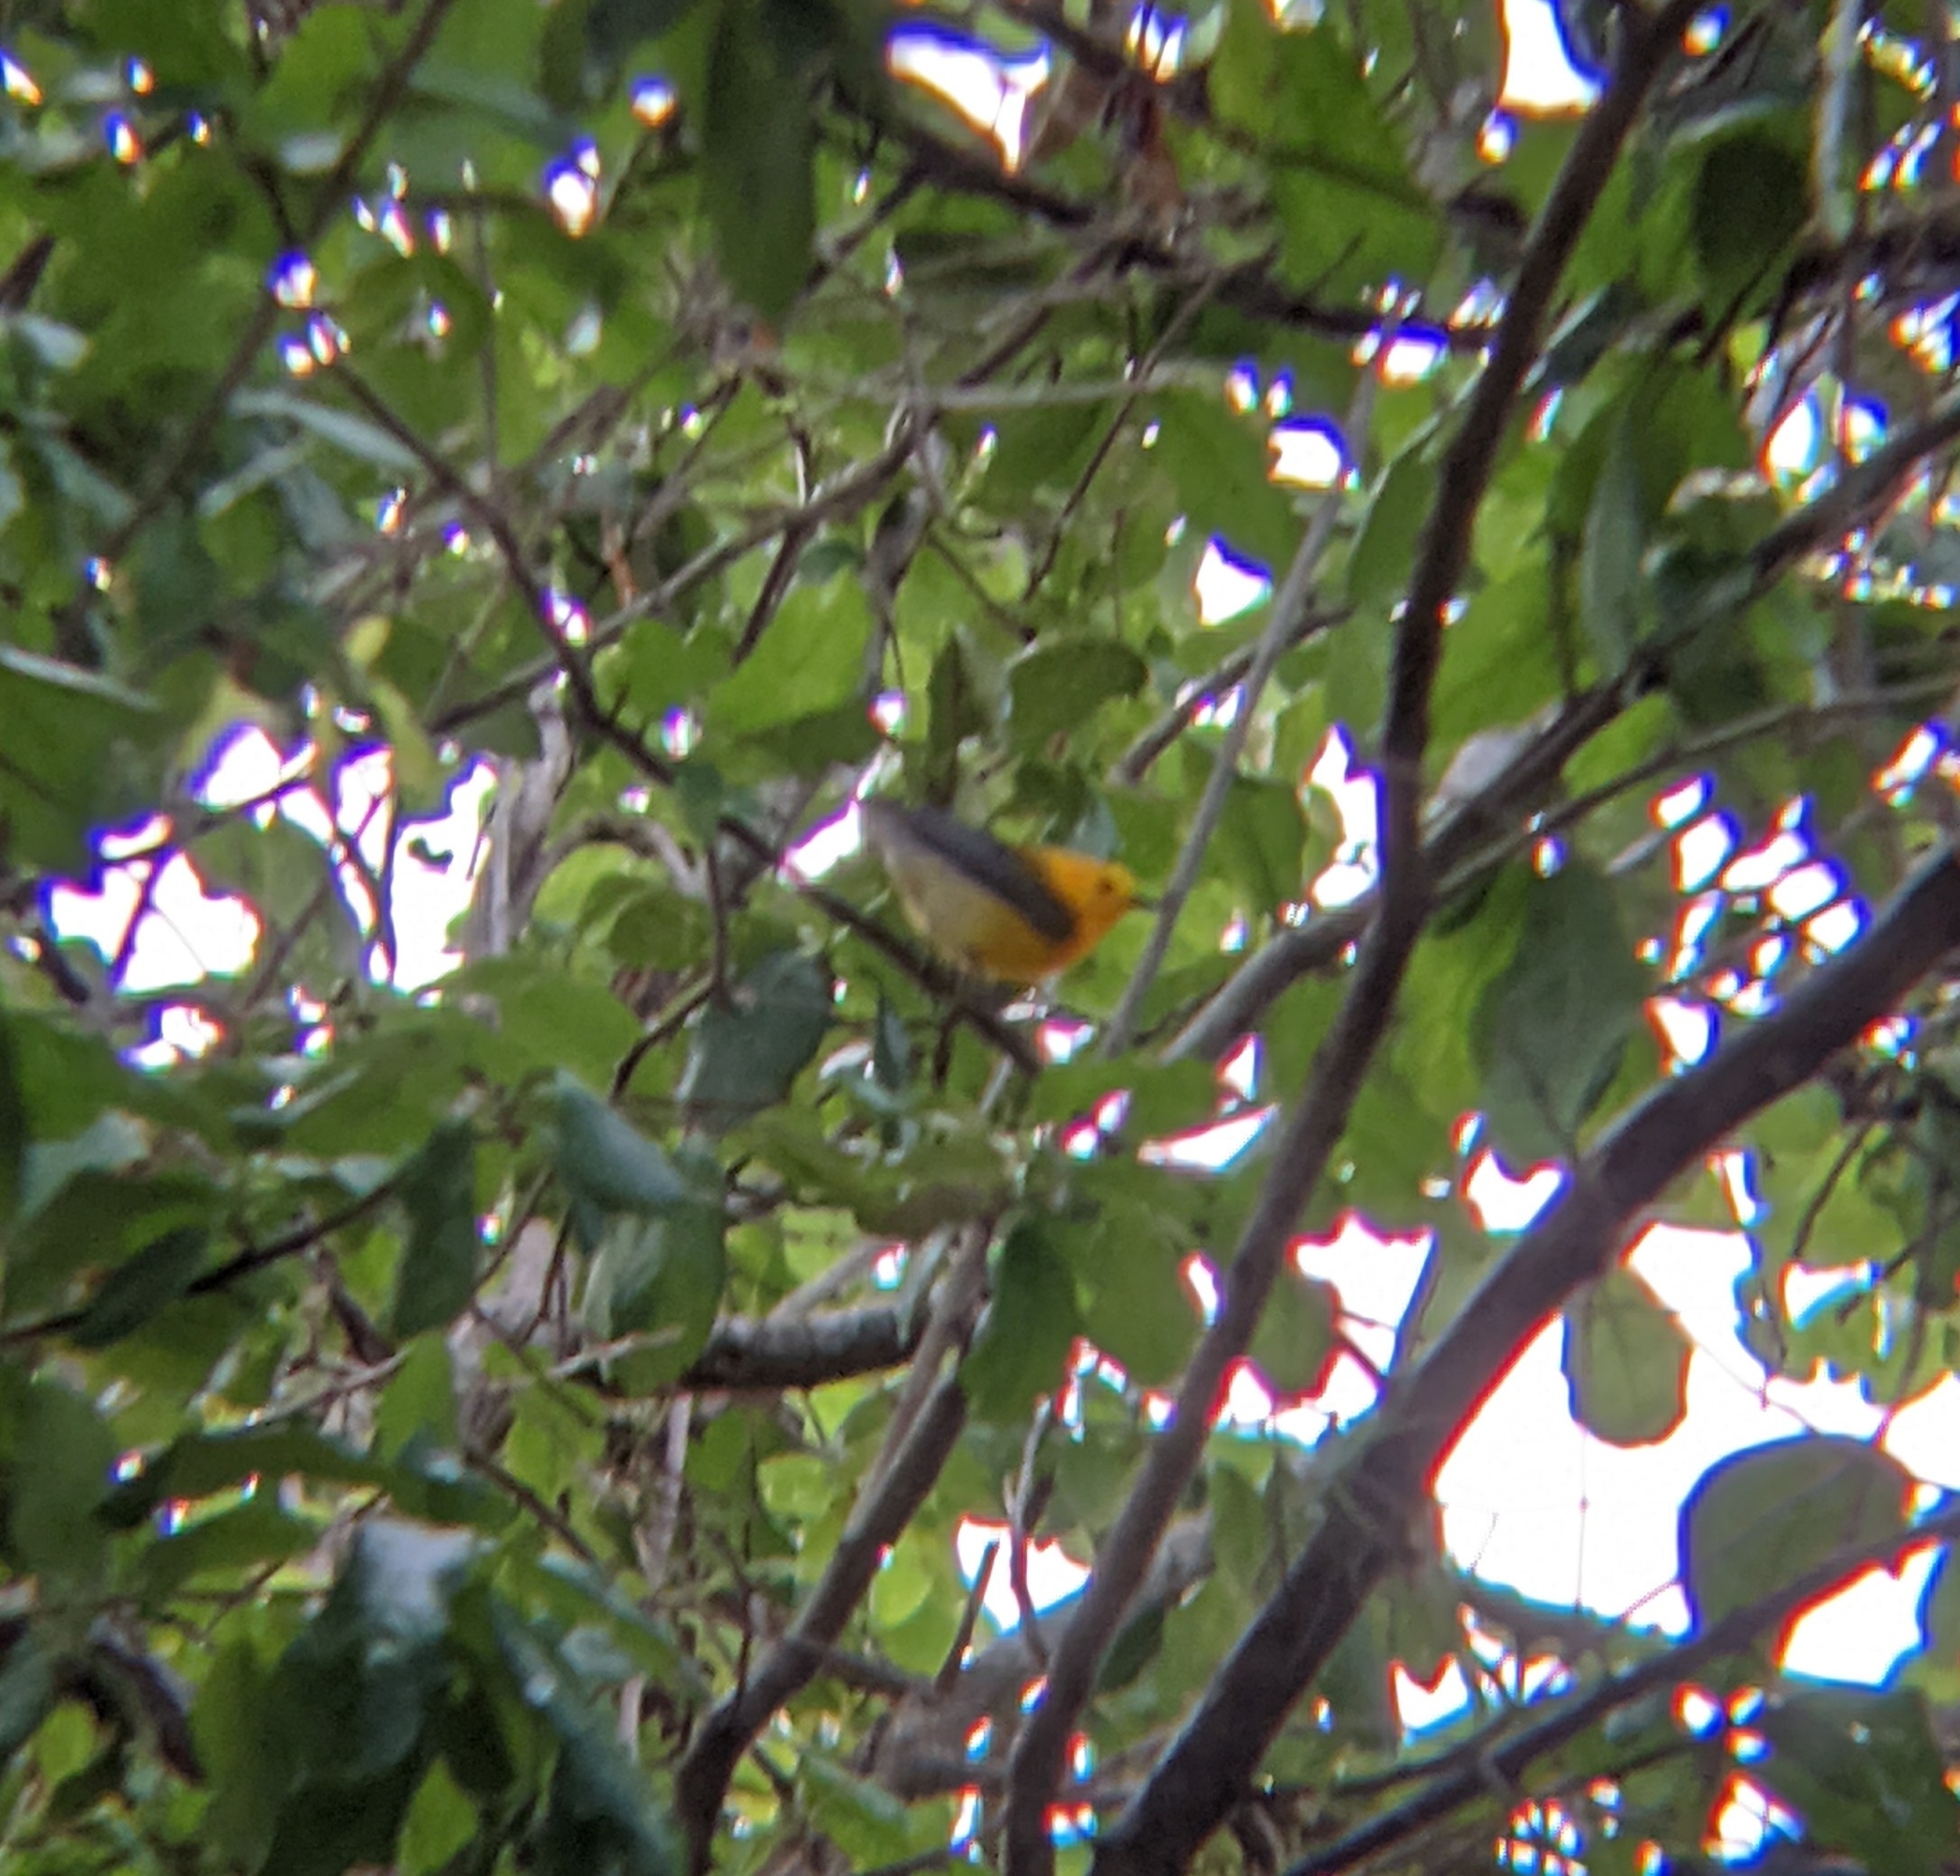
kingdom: Animalia
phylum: Chordata
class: Aves
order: Passeriformes
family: Parulidae
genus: Protonotaria
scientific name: Protonotaria citrea
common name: Prothonotary warbler
